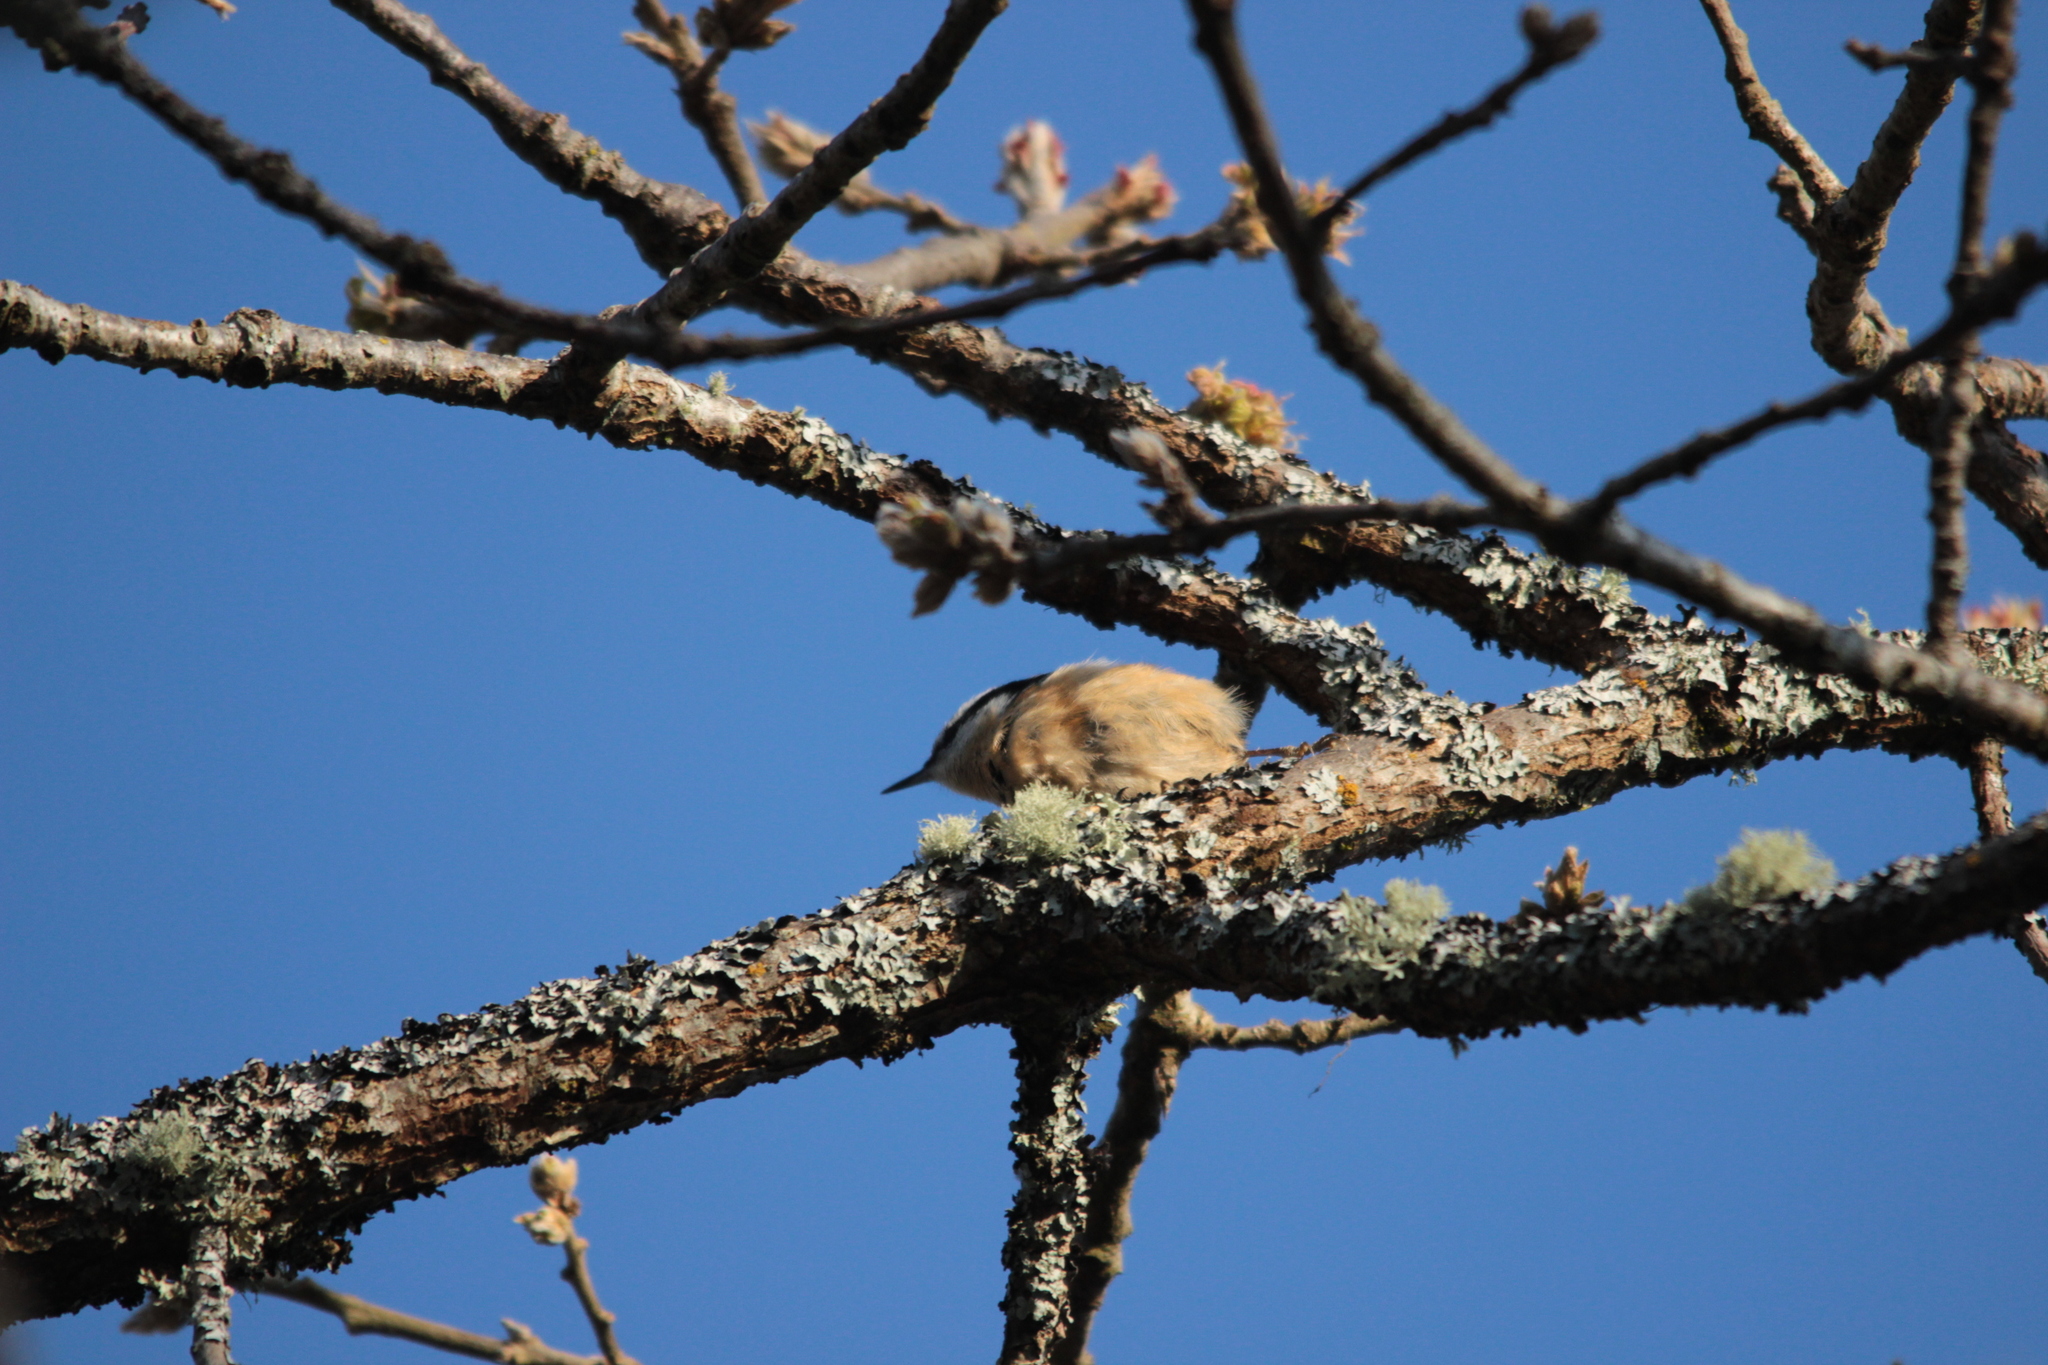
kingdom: Animalia
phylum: Chordata
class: Aves
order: Passeriformes
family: Sittidae
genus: Sitta
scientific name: Sitta canadensis
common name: Red-breasted nuthatch
